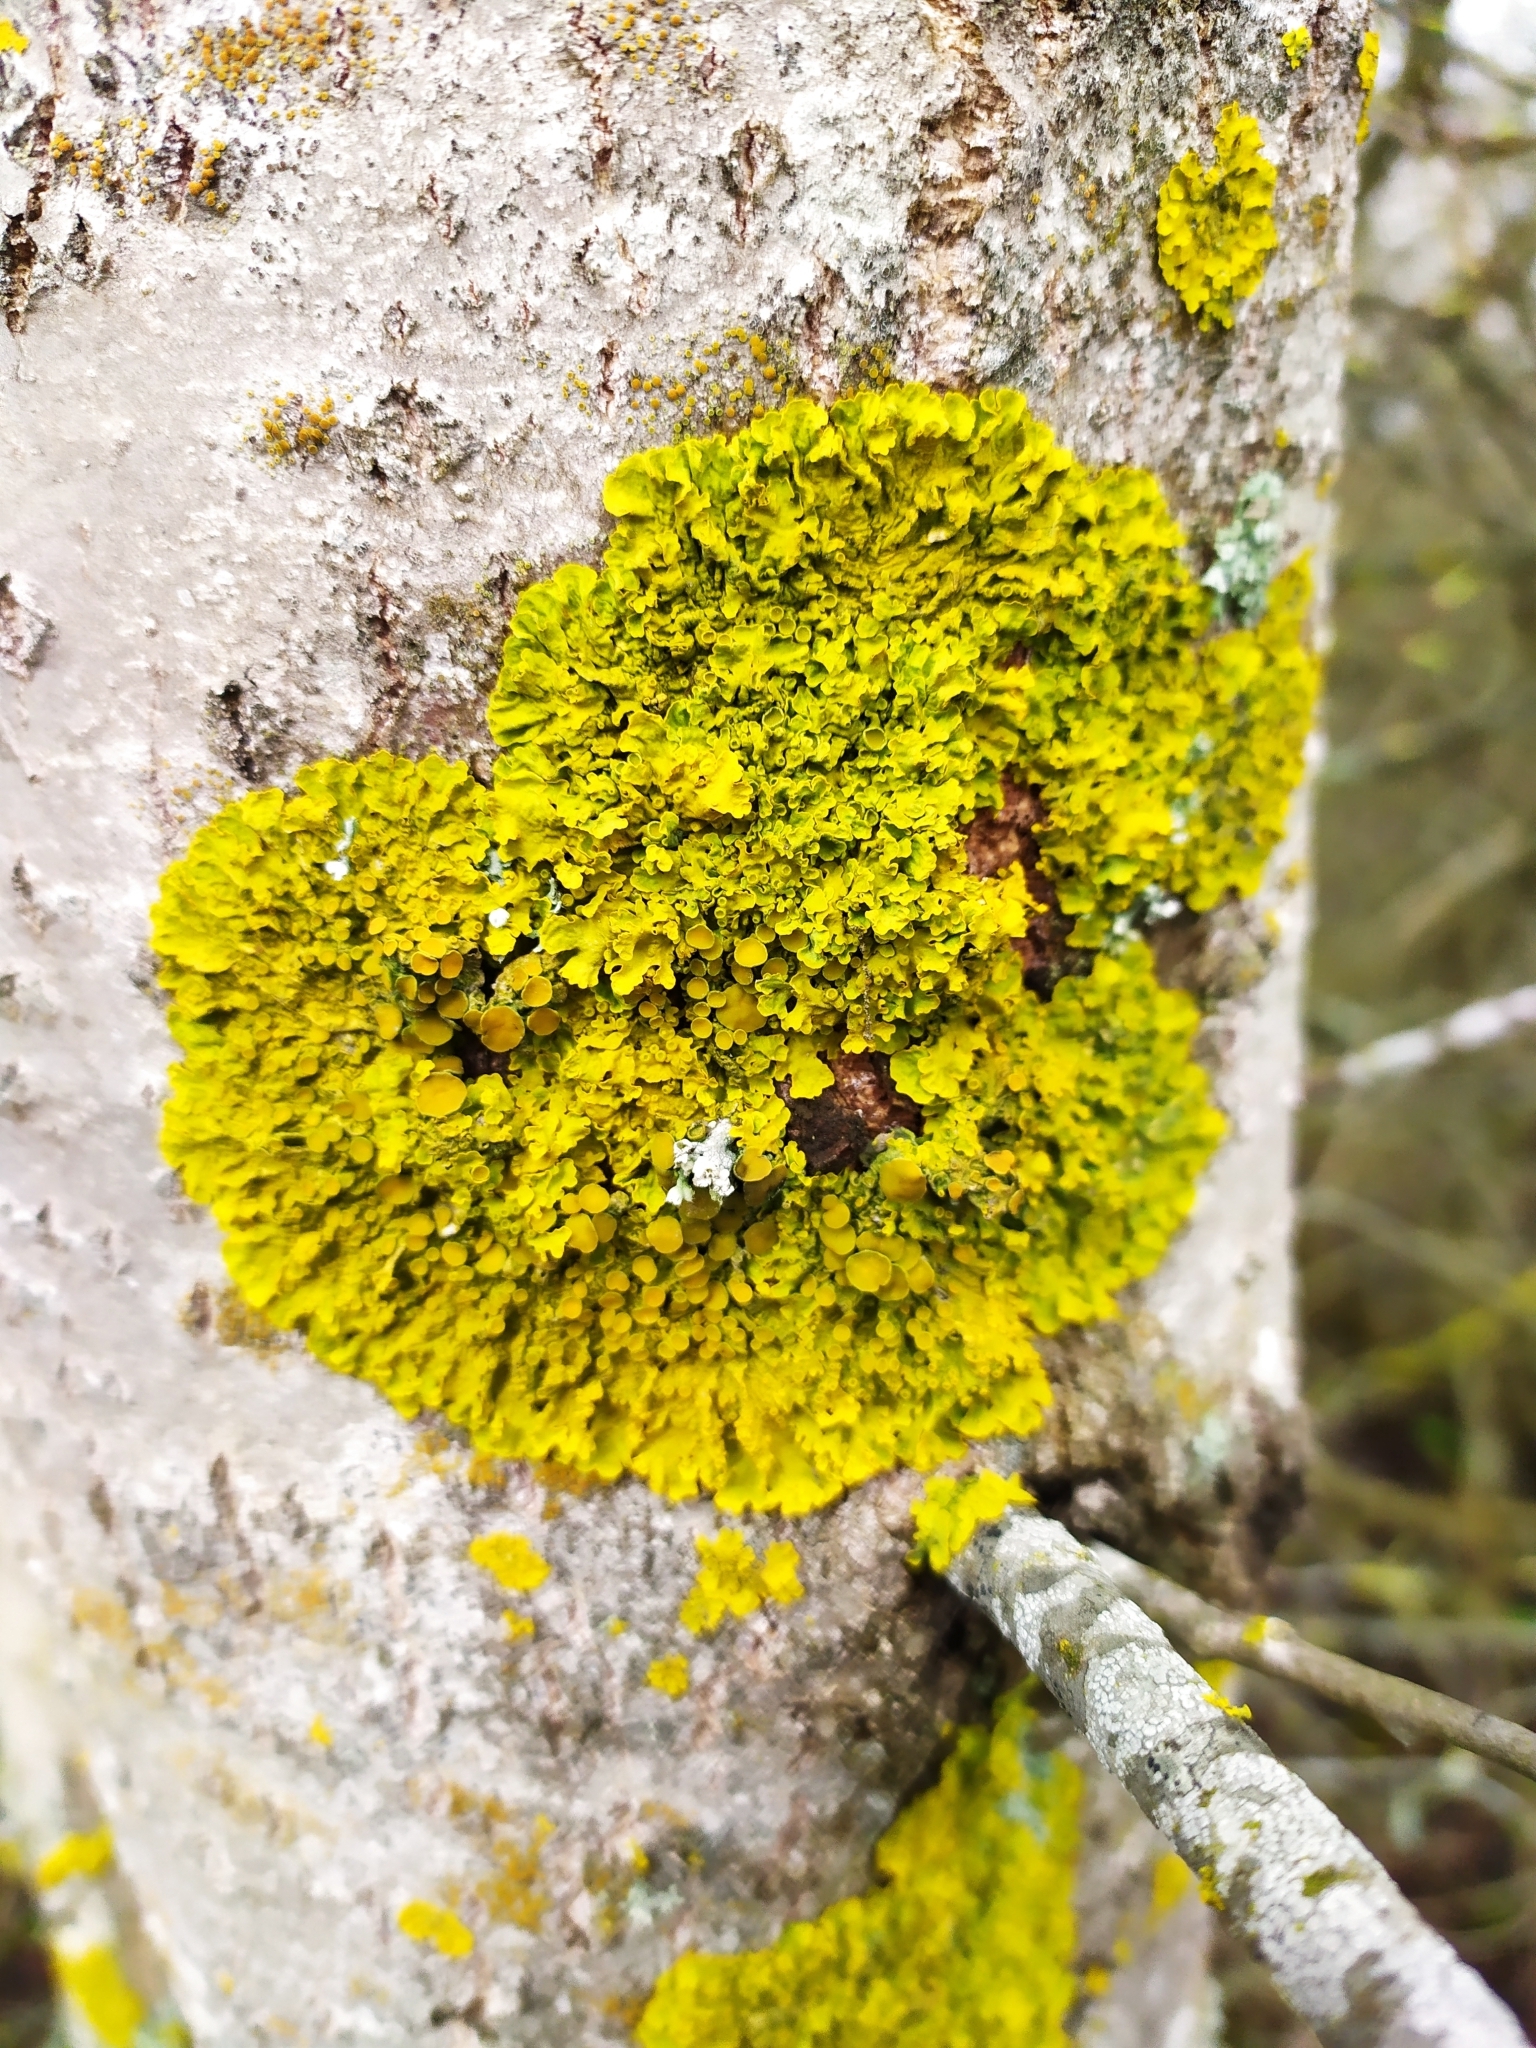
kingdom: Fungi
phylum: Ascomycota
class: Lecanoromycetes
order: Teloschistales
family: Teloschistaceae
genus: Xanthoria
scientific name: Xanthoria parietina
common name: Common orange lichen
